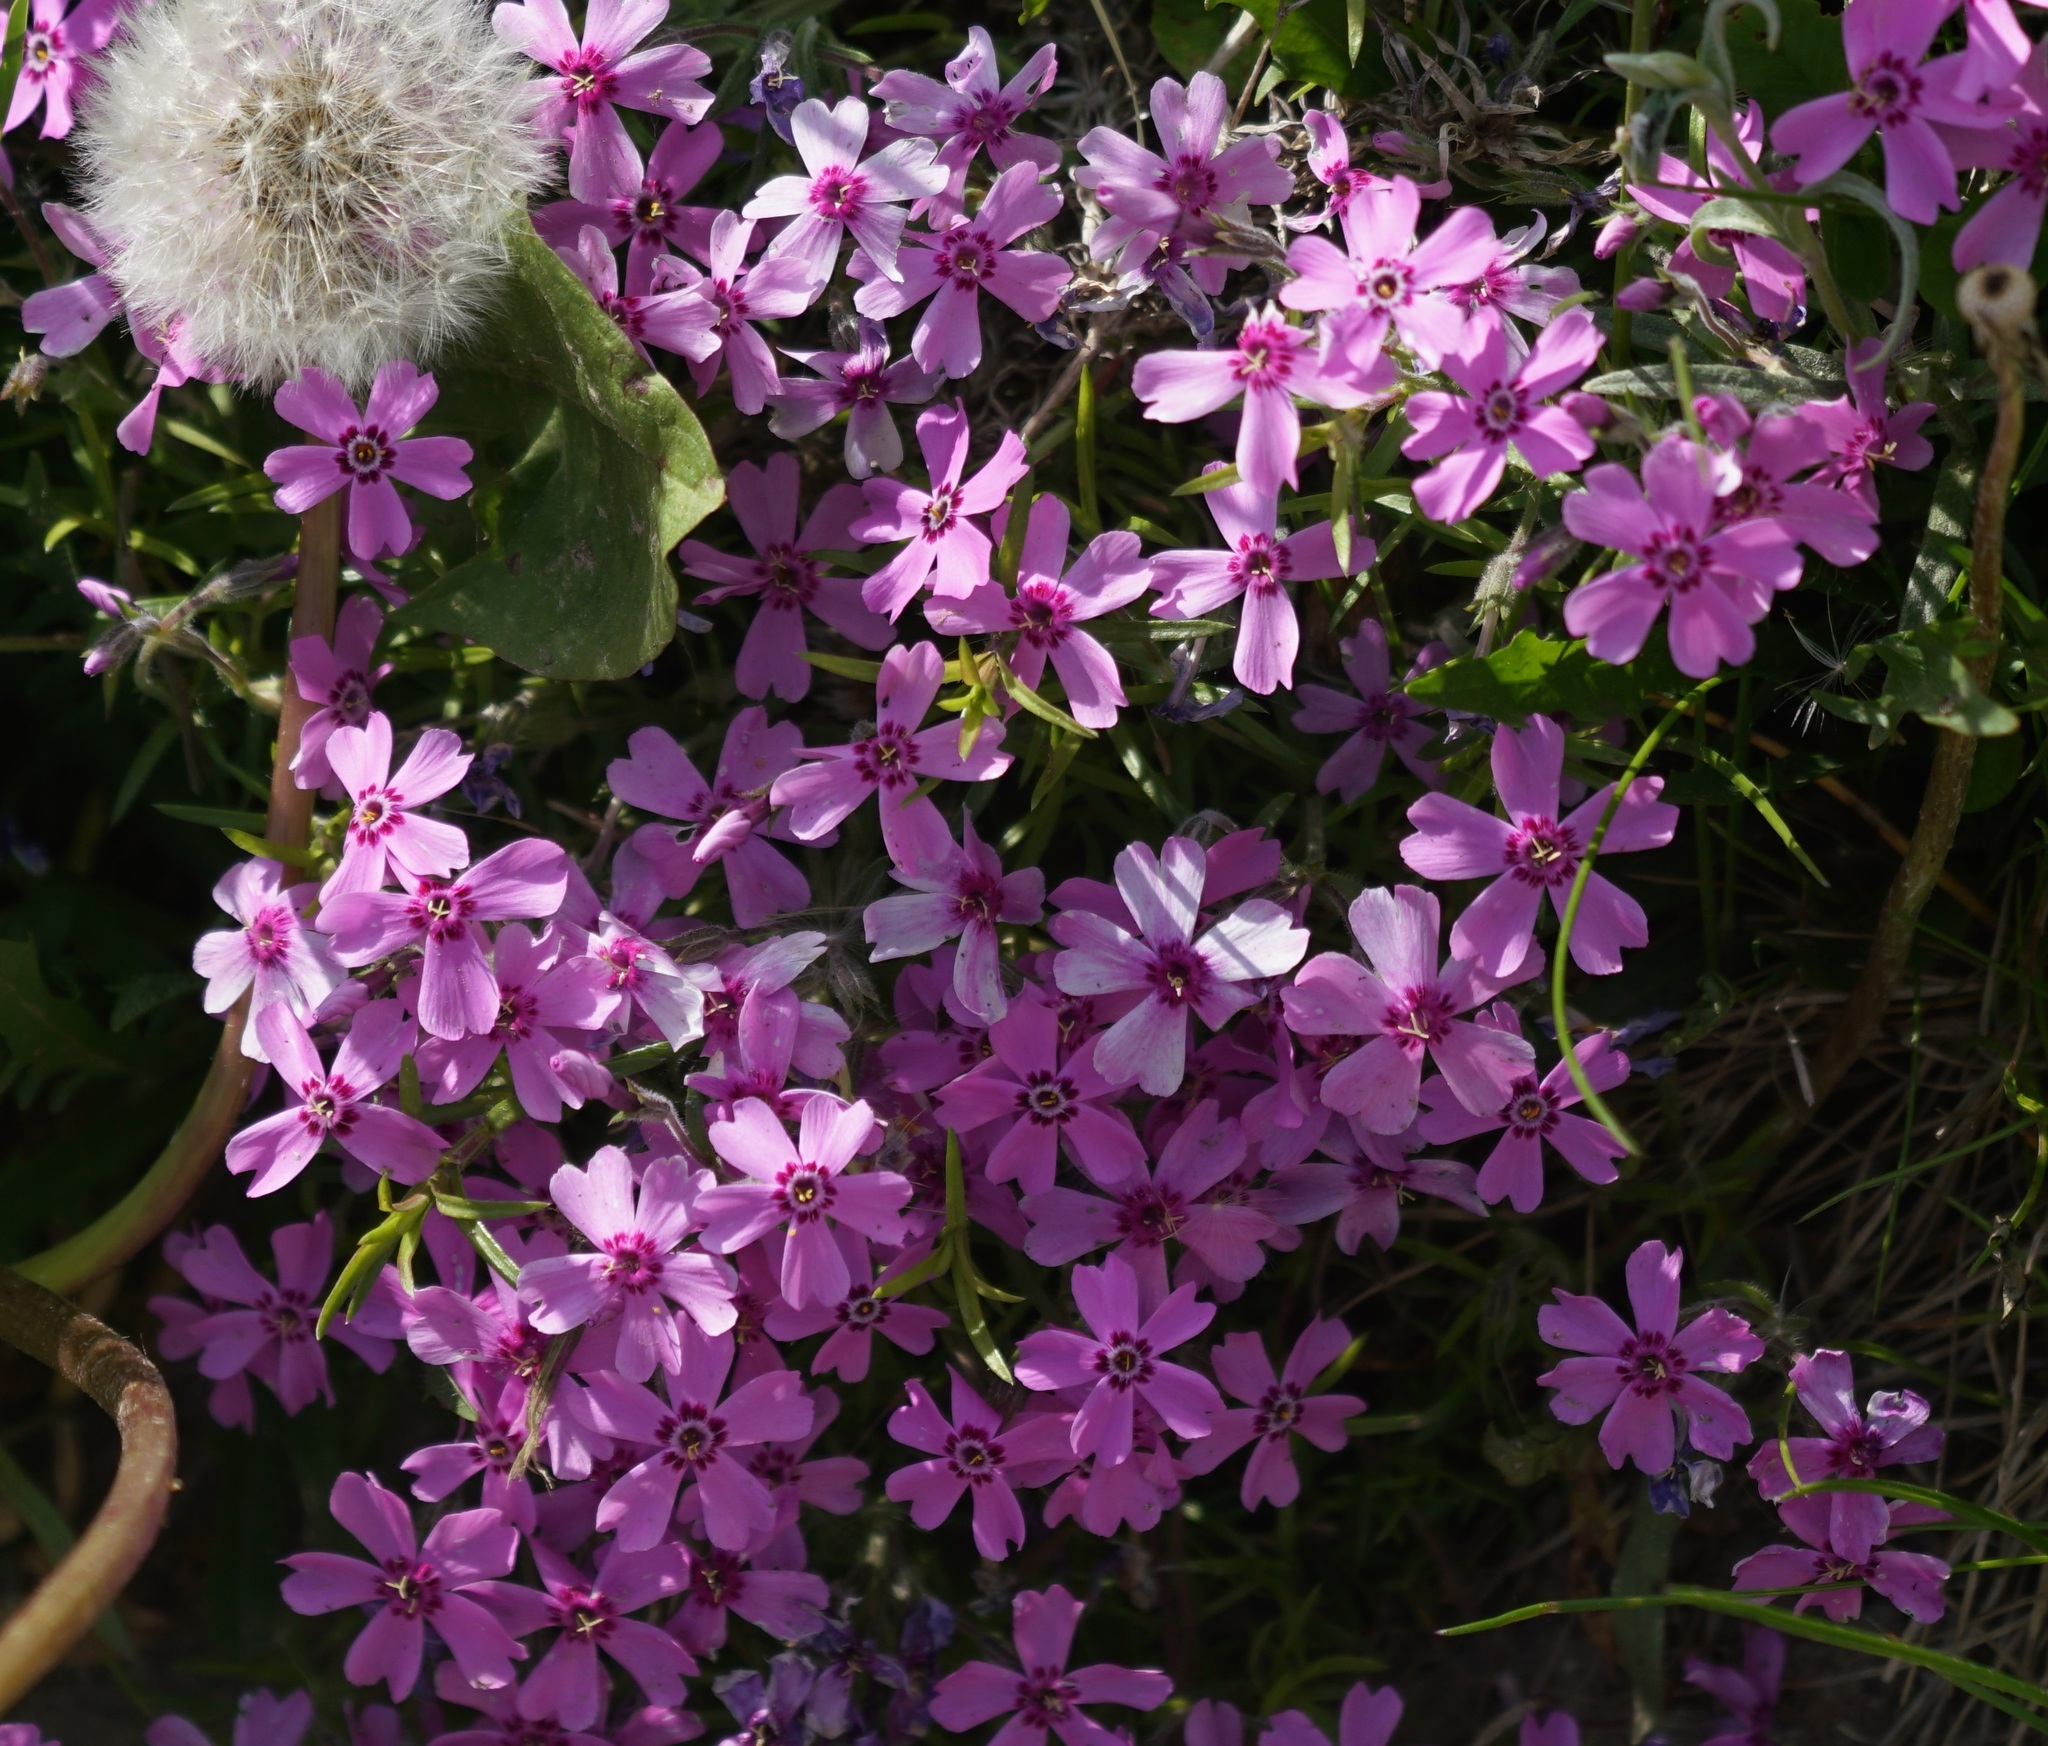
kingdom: Plantae
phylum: Tracheophyta
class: Magnoliopsida
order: Ericales
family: Polemoniaceae
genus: Phlox
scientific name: Phlox subulata
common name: Moss phlox
